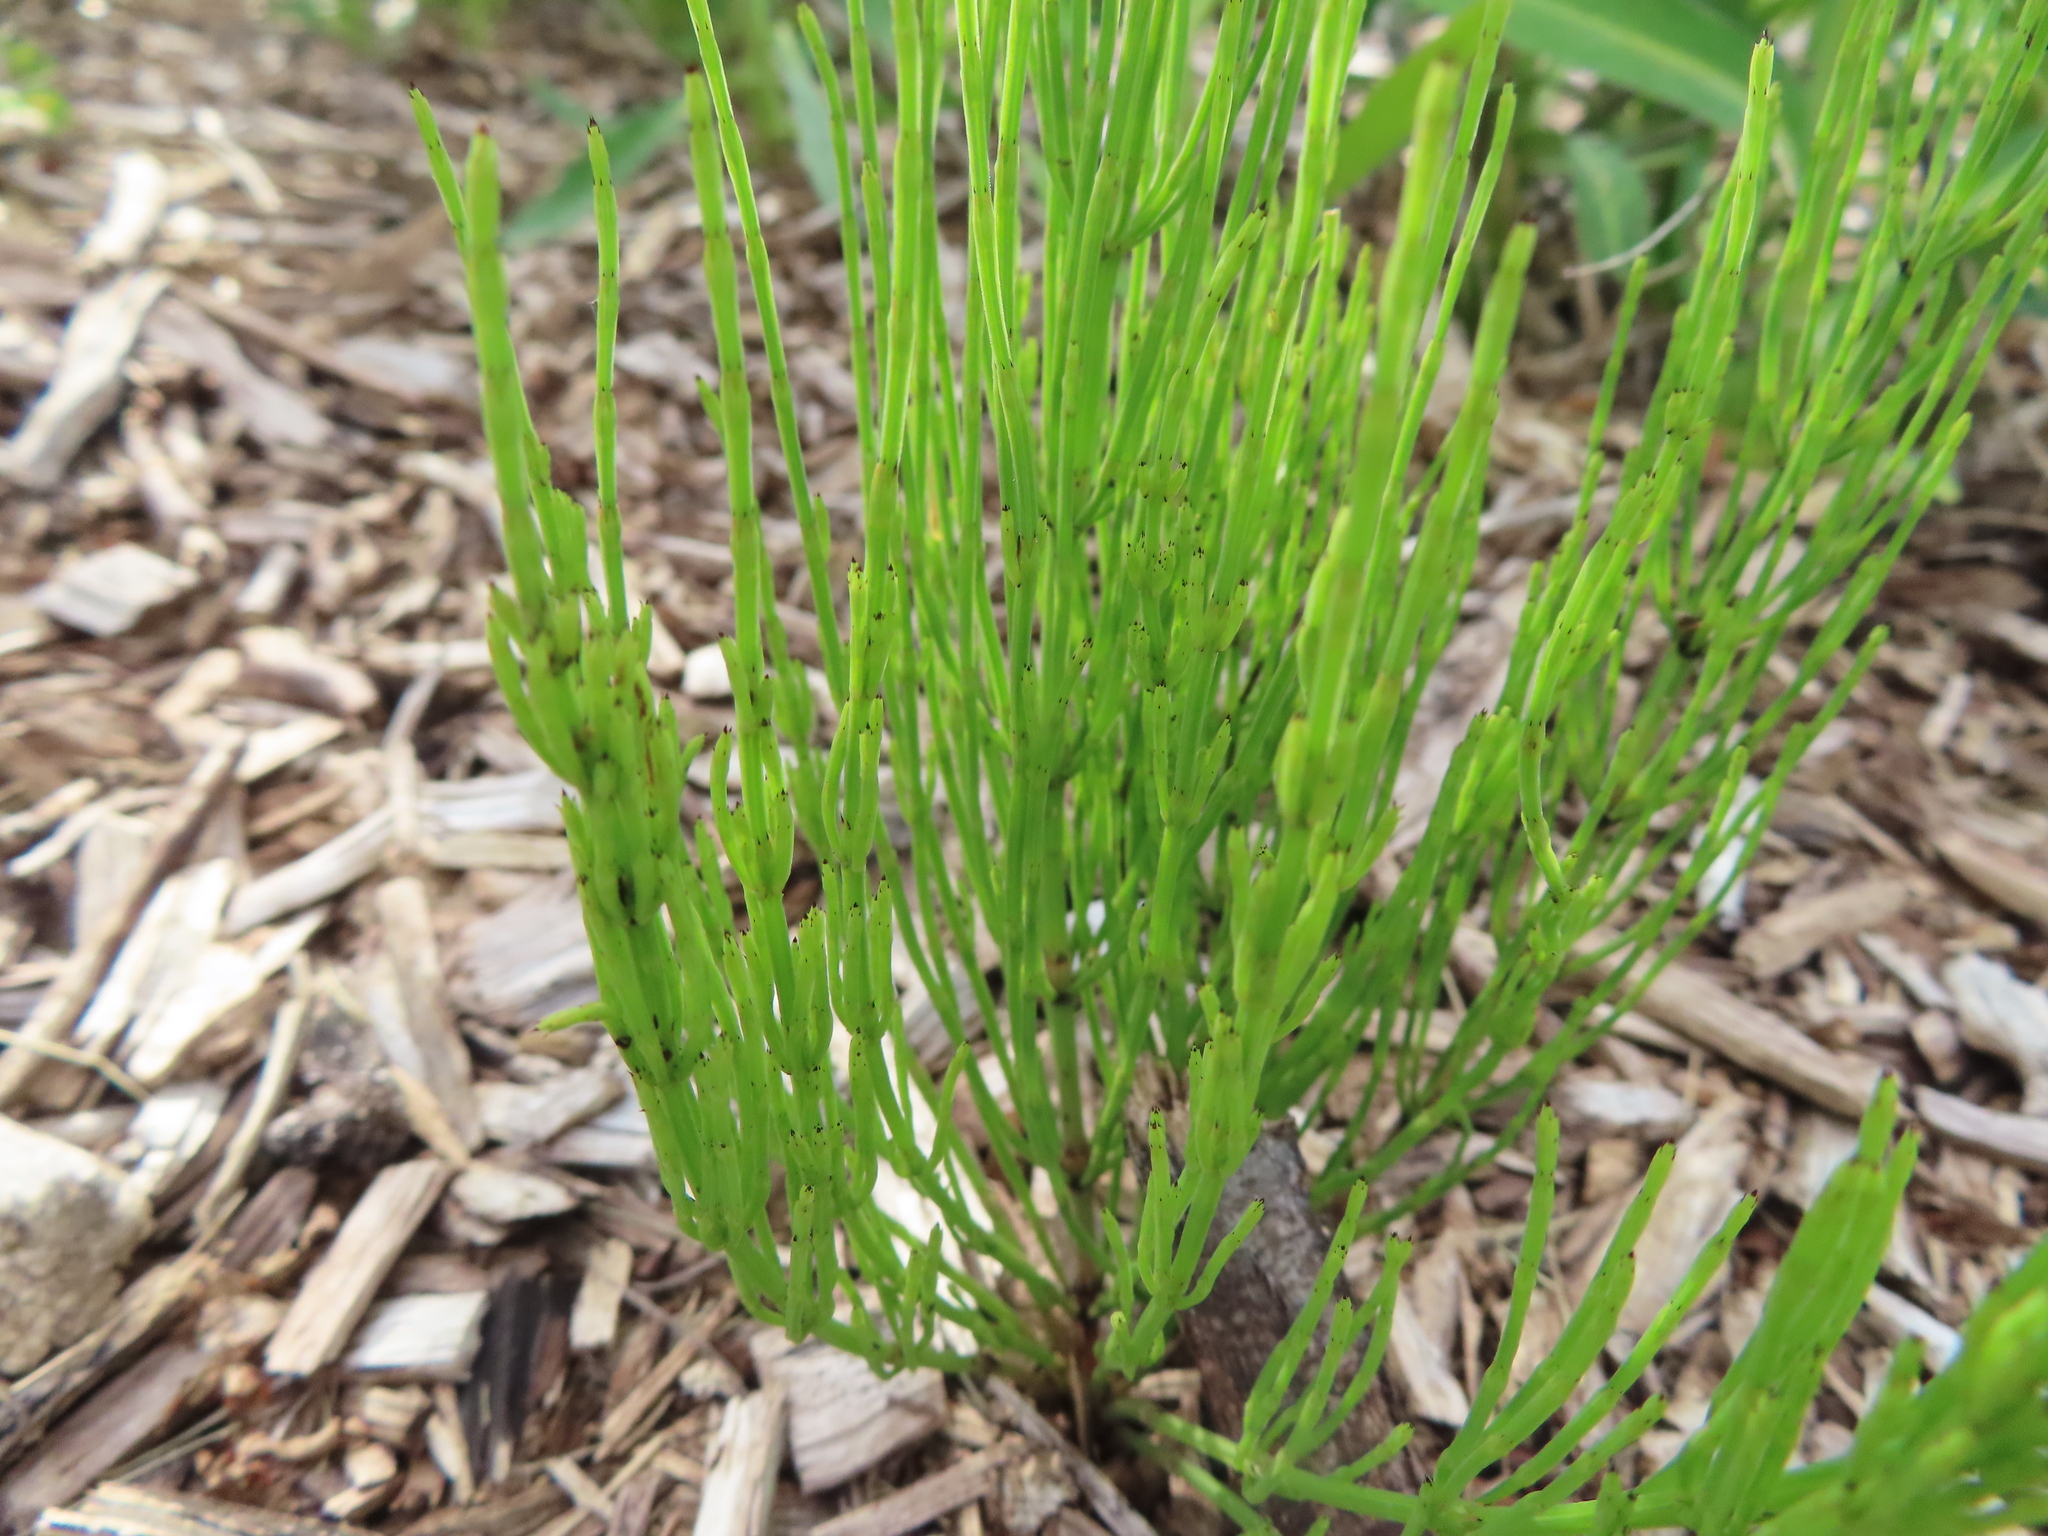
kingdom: Plantae
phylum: Tracheophyta
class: Polypodiopsida
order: Equisetales
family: Equisetaceae
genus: Equisetum
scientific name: Equisetum arvense
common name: Field horsetail
